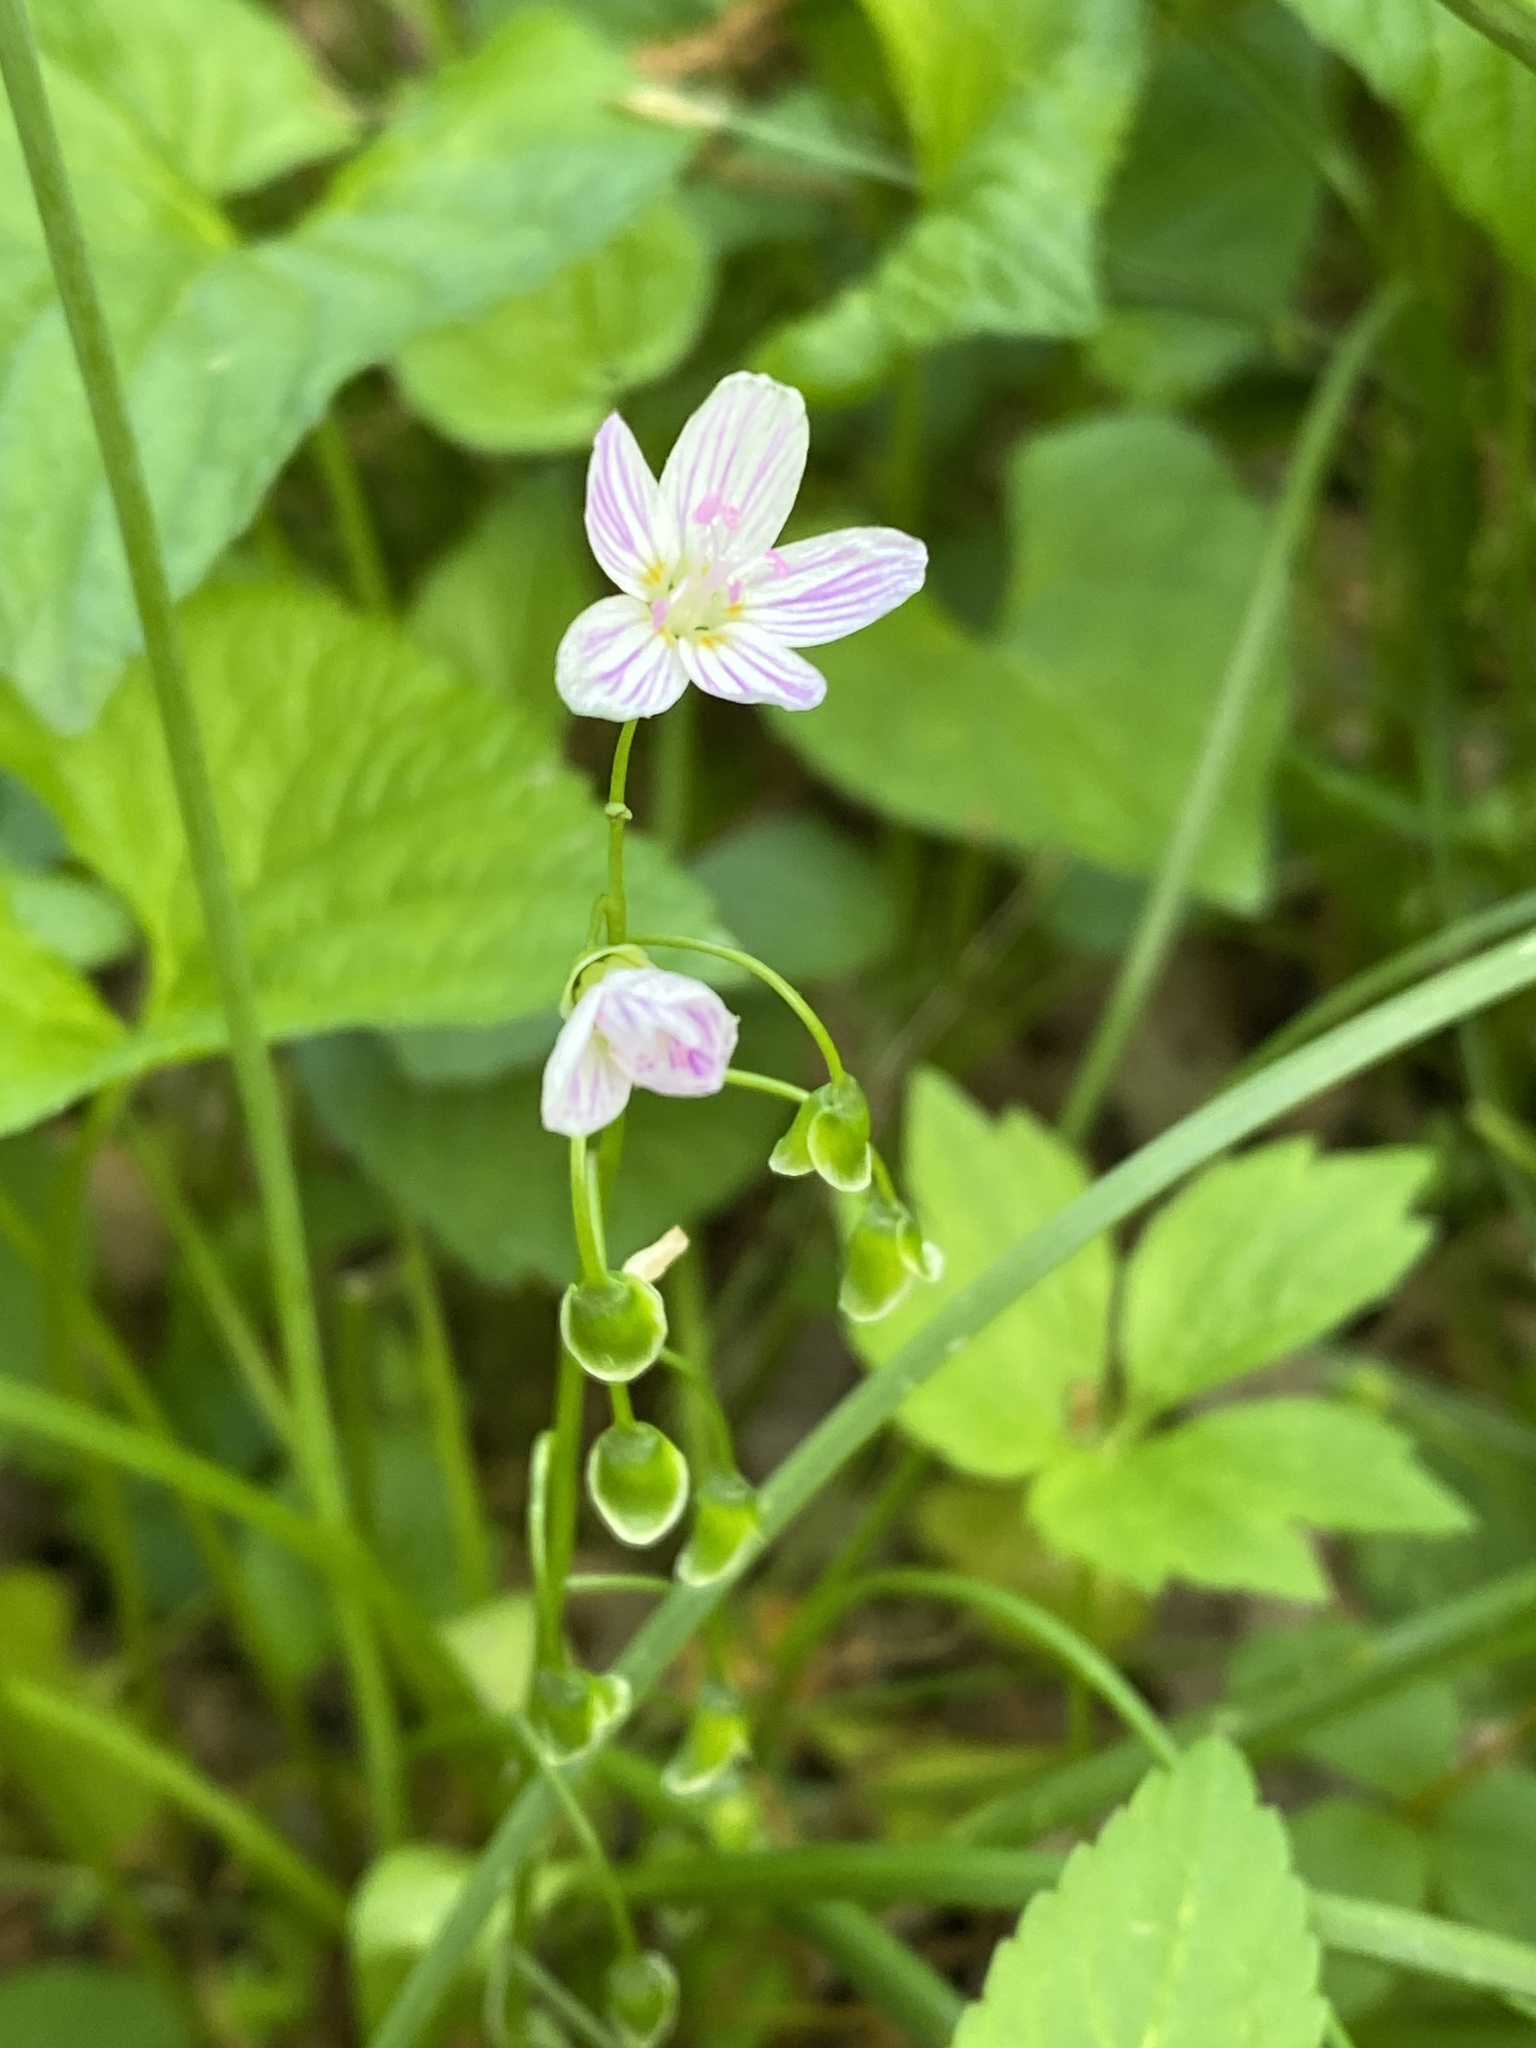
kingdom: Plantae
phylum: Tracheophyta
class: Magnoliopsida
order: Caryophyllales
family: Montiaceae
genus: Claytonia
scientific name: Claytonia virginica
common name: Virginia springbeauty
